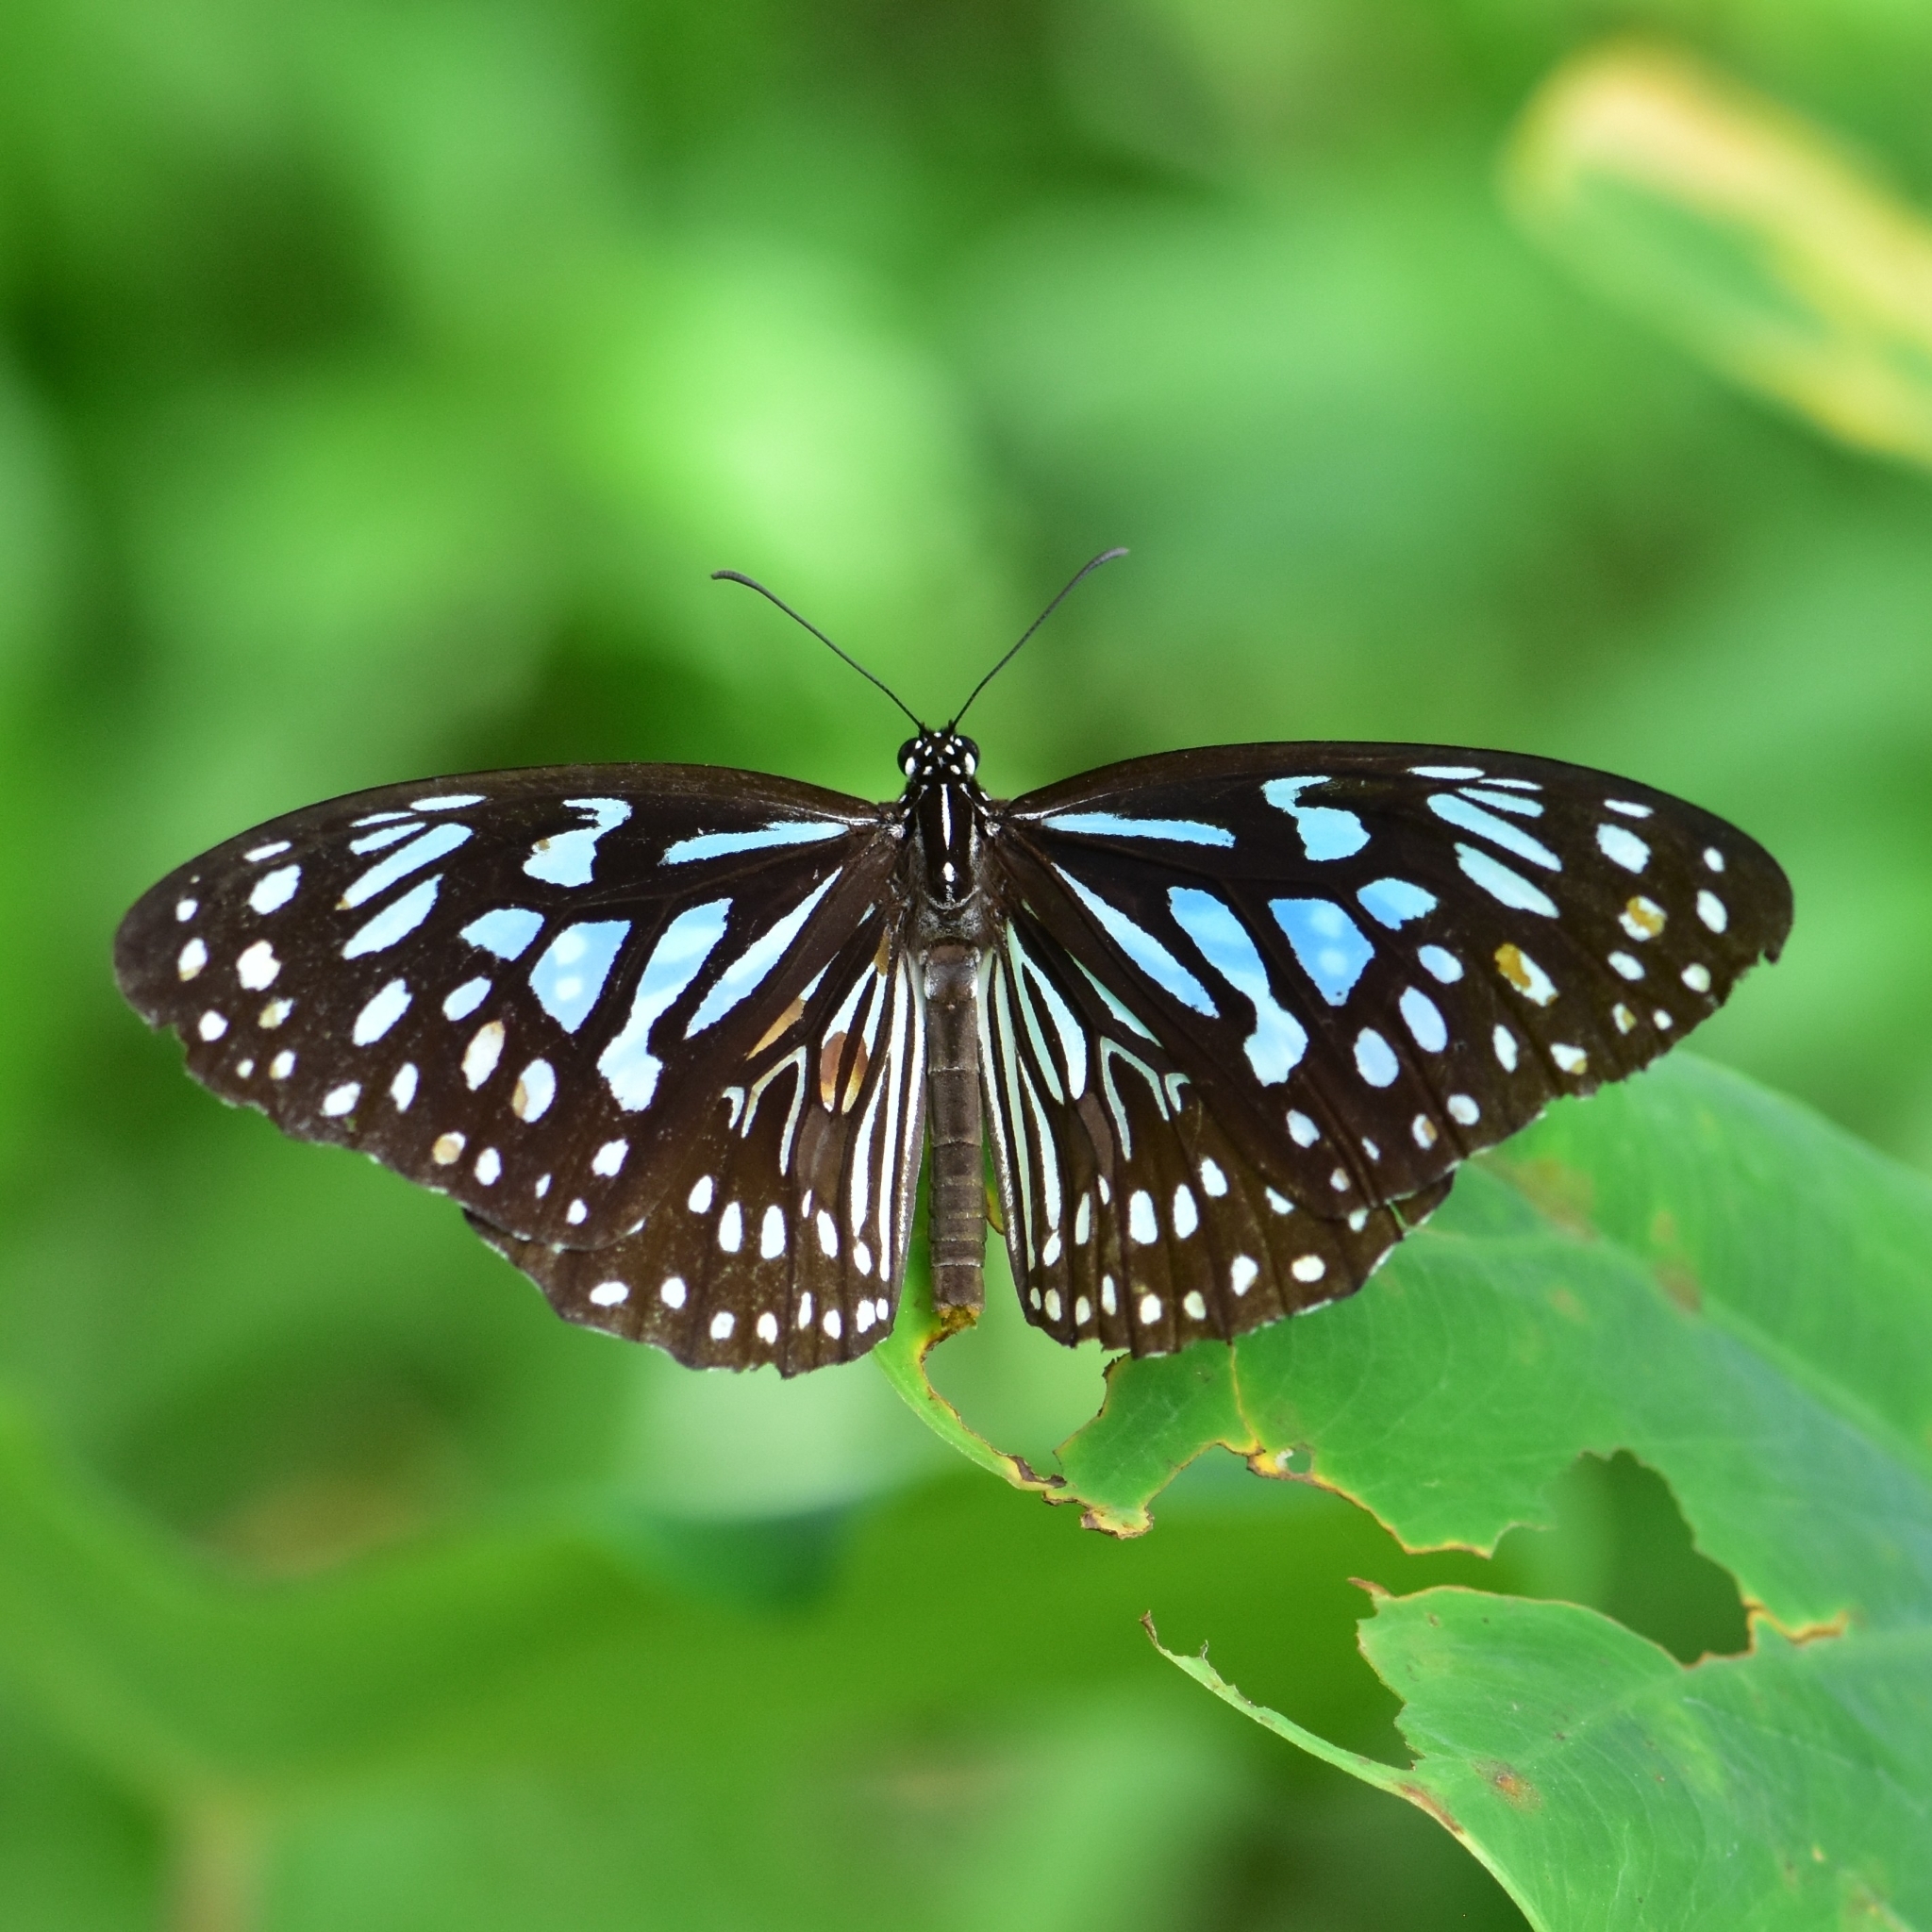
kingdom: Animalia
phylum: Arthropoda
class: Insecta
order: Lepidoptera
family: Nymphalidae
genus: Tirumala
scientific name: Tirumala septentrionis
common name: Dark blue tiger butterfly
